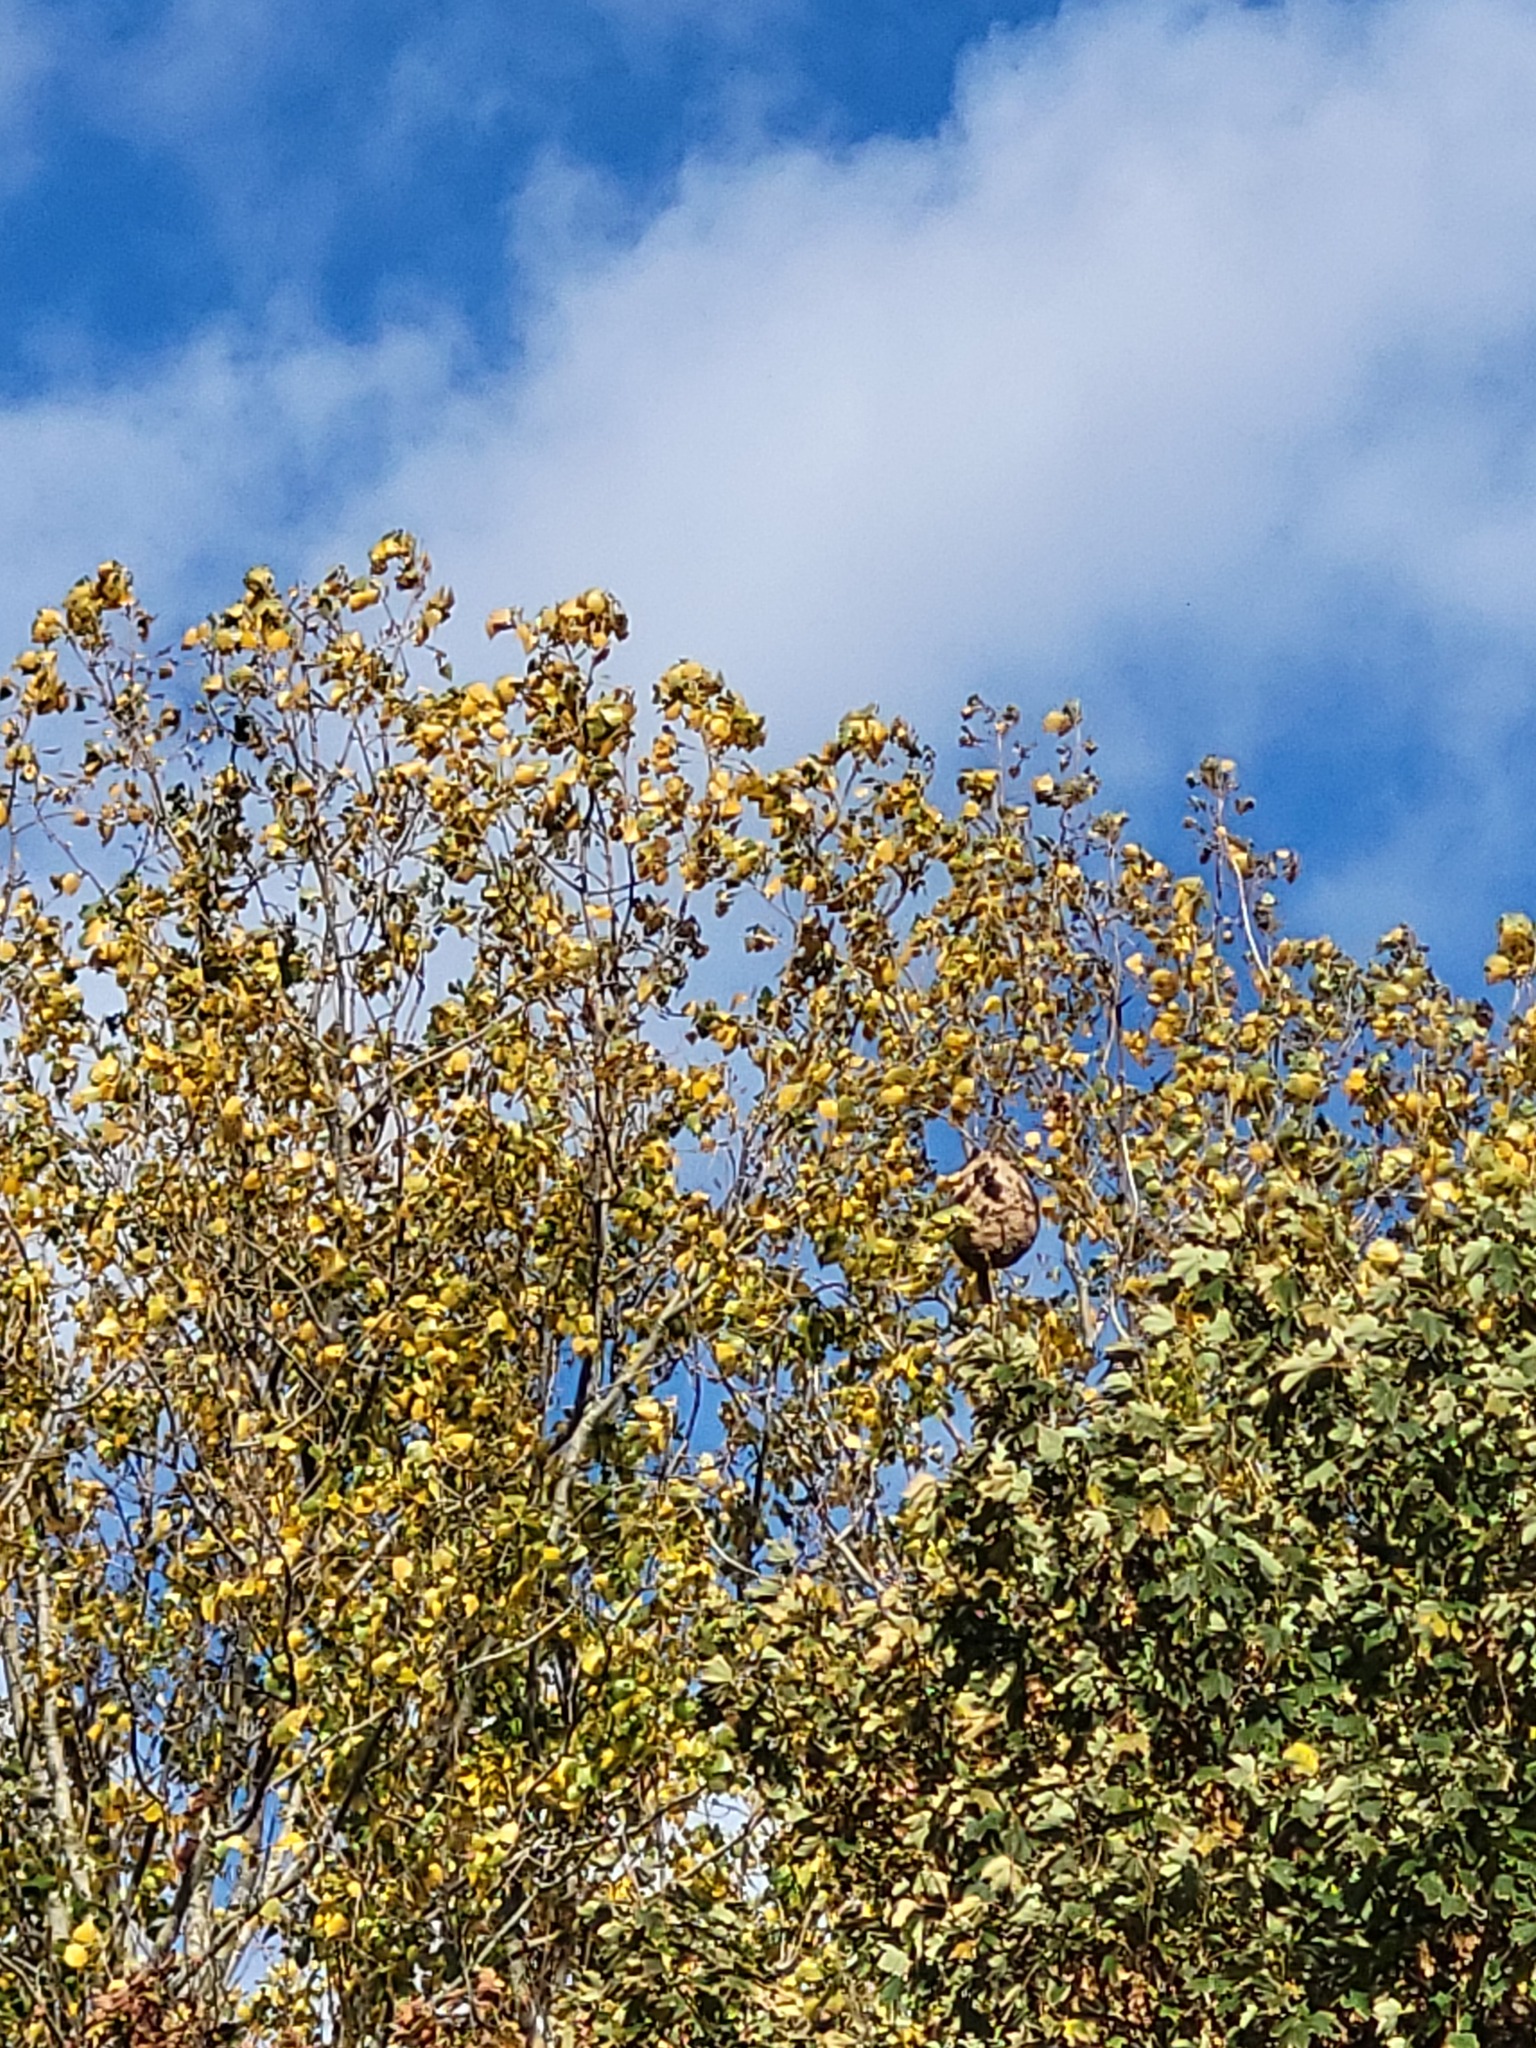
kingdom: Animalia
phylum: Arthropoda
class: Insecta
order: Hymenoptera
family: Vespidae
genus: Vespa
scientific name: Vespa velutina
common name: Asian hornet
